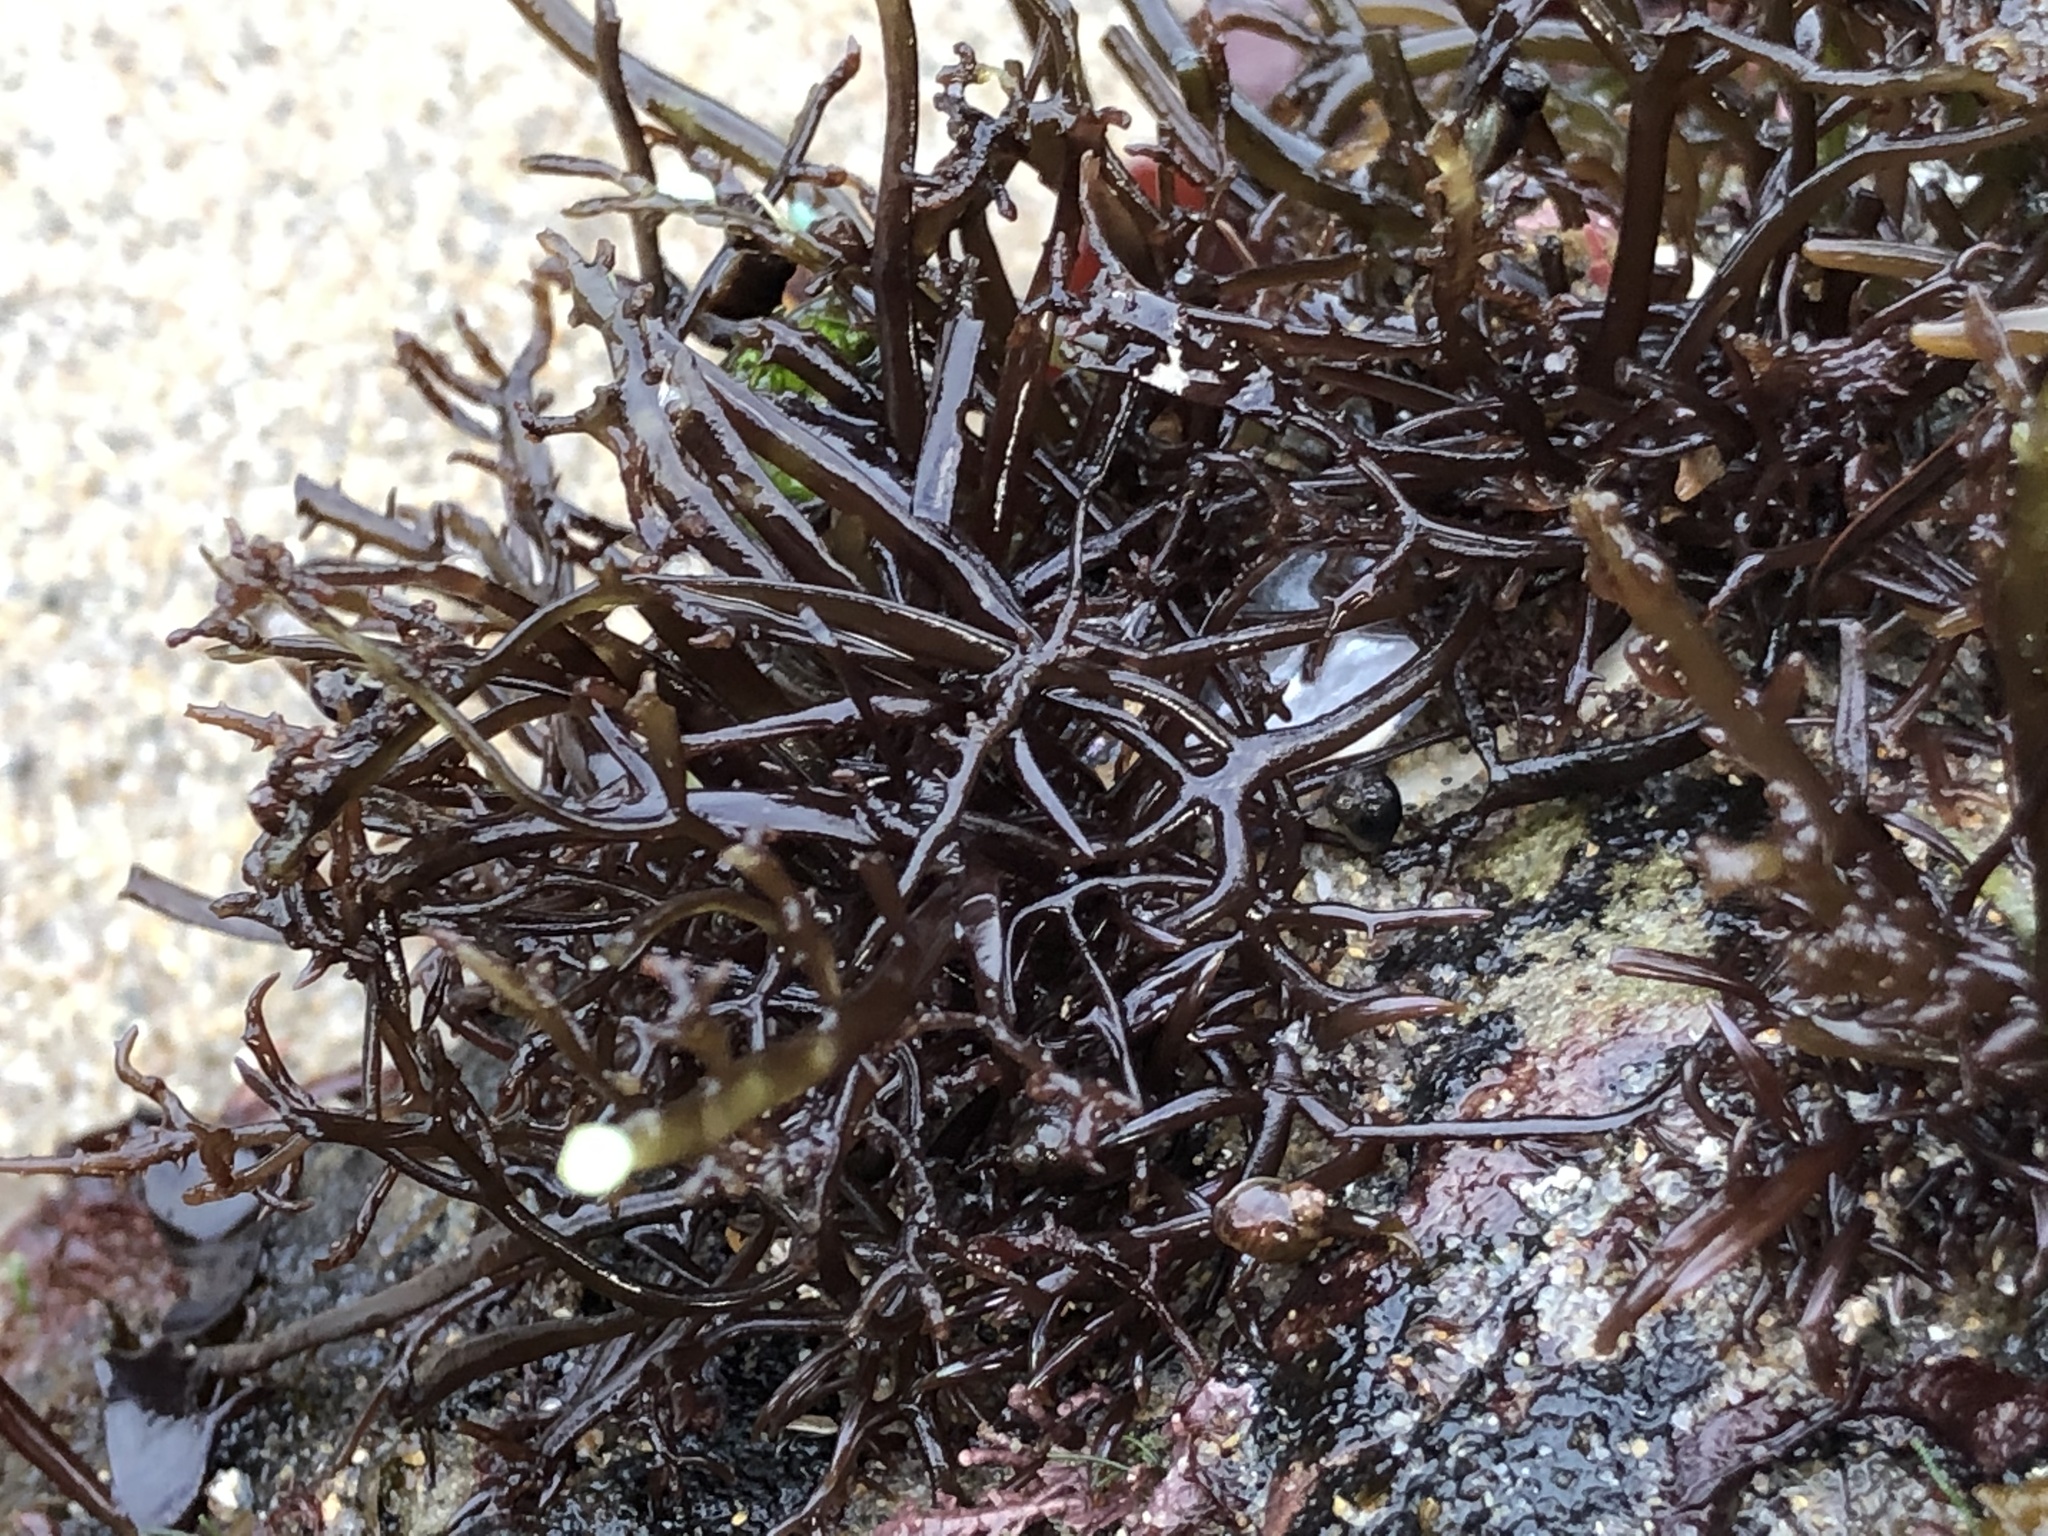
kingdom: Plantae
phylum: Rhodophyta
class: Florideophyceae
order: Rhodymeniales
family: Champiaceae
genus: Neogastroclonium
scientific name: Neogastroclonium subarticulatum
